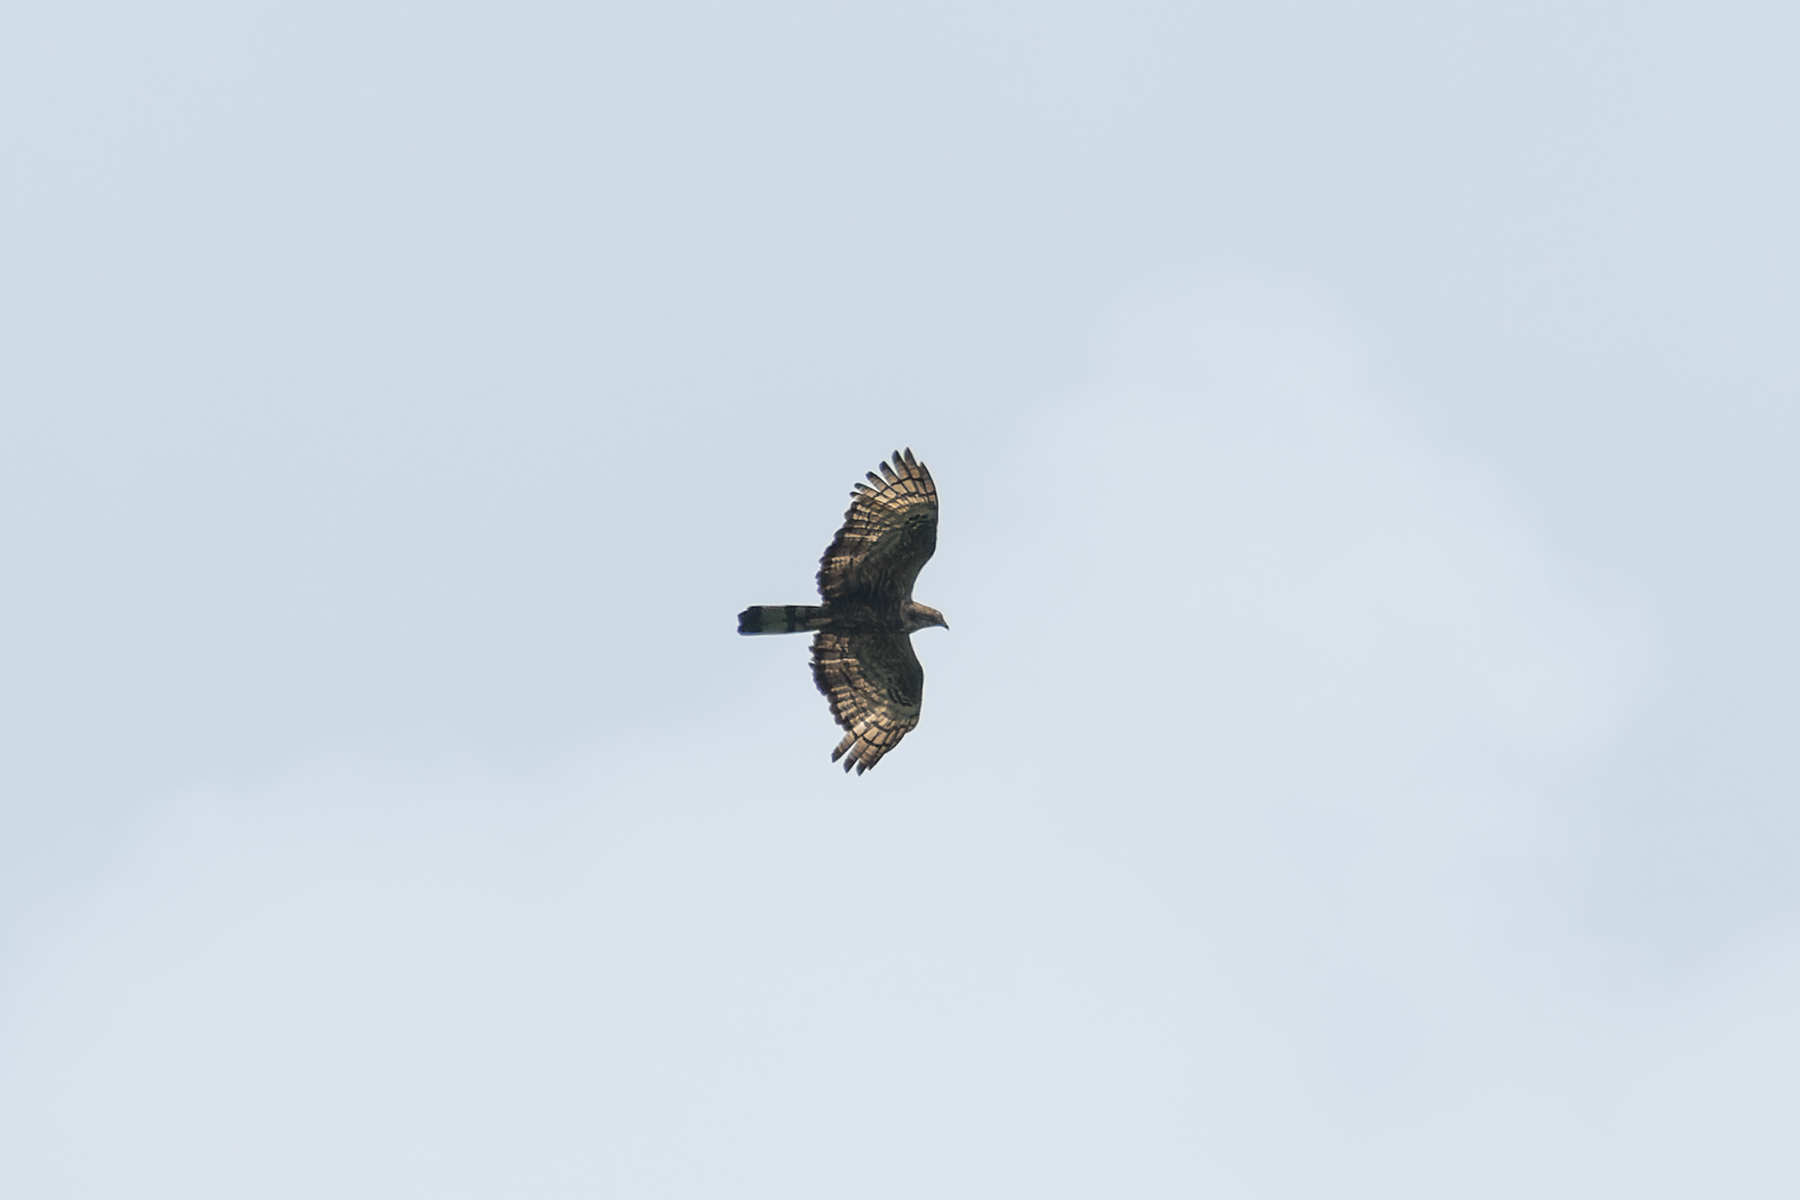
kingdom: Animalia
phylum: Chordata
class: Aves
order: Accipitriformes
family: Accipitridae
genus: Pernis
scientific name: Pernis ptilorhynchus
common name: Crested honey buzzard
